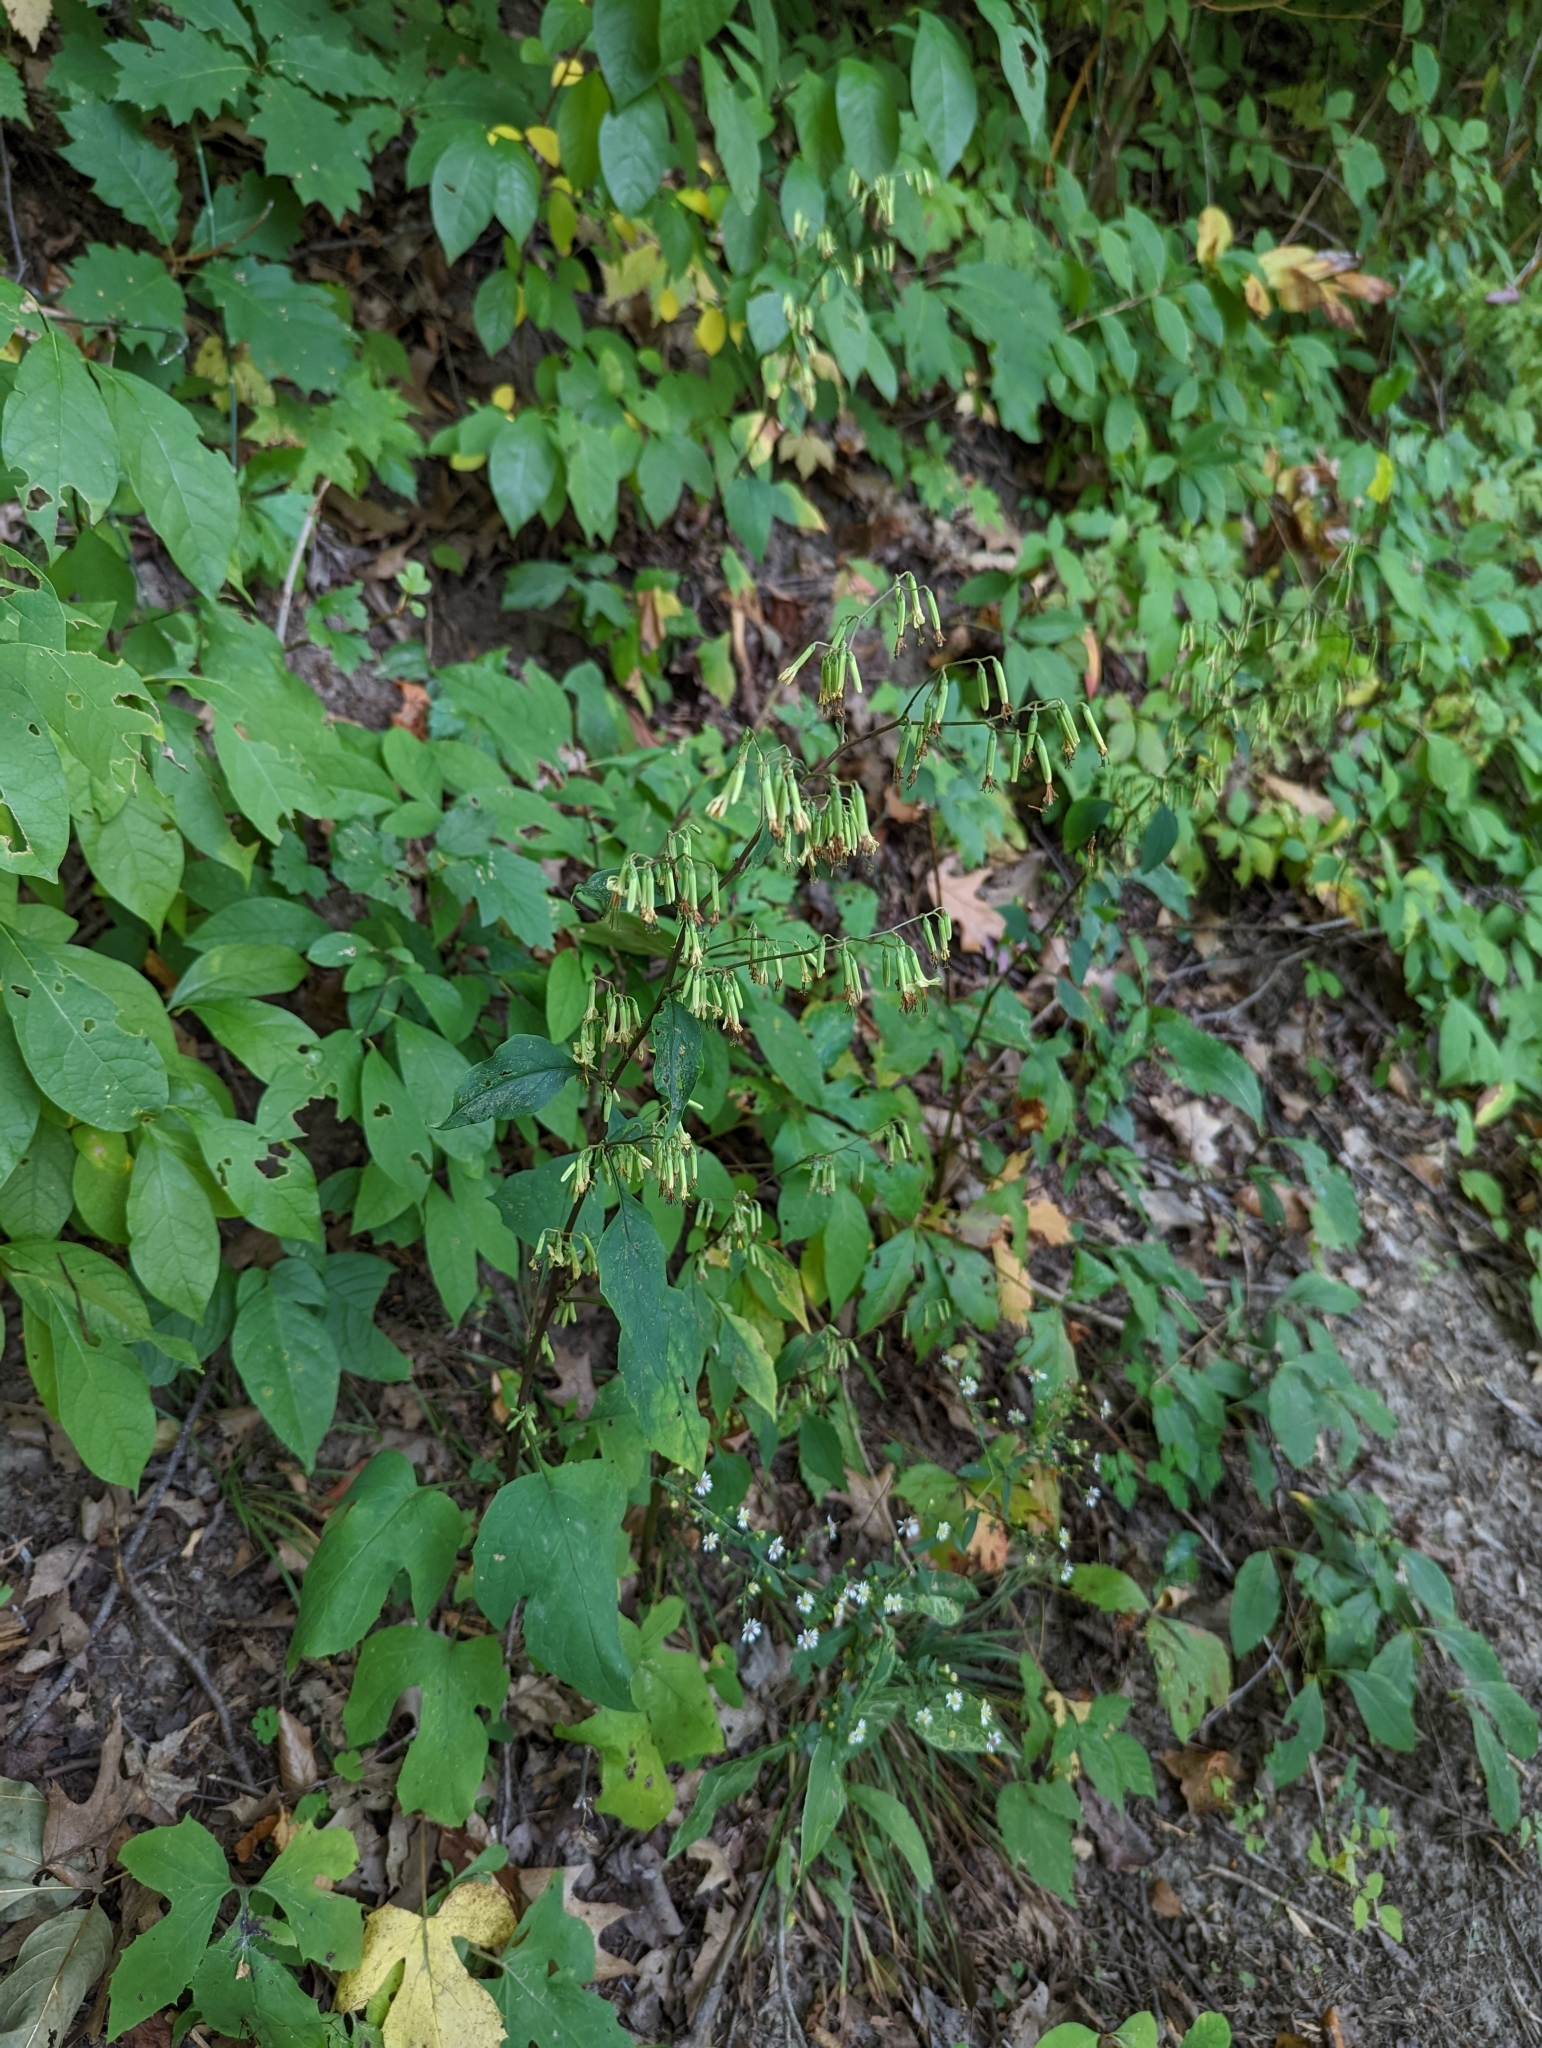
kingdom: Plantae
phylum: Tracheophyta
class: Magnoliopsida
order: Asterales
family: Asteraceae
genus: Nabalus
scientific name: Nabalus altissima
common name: Tall rattlesnakeroot
